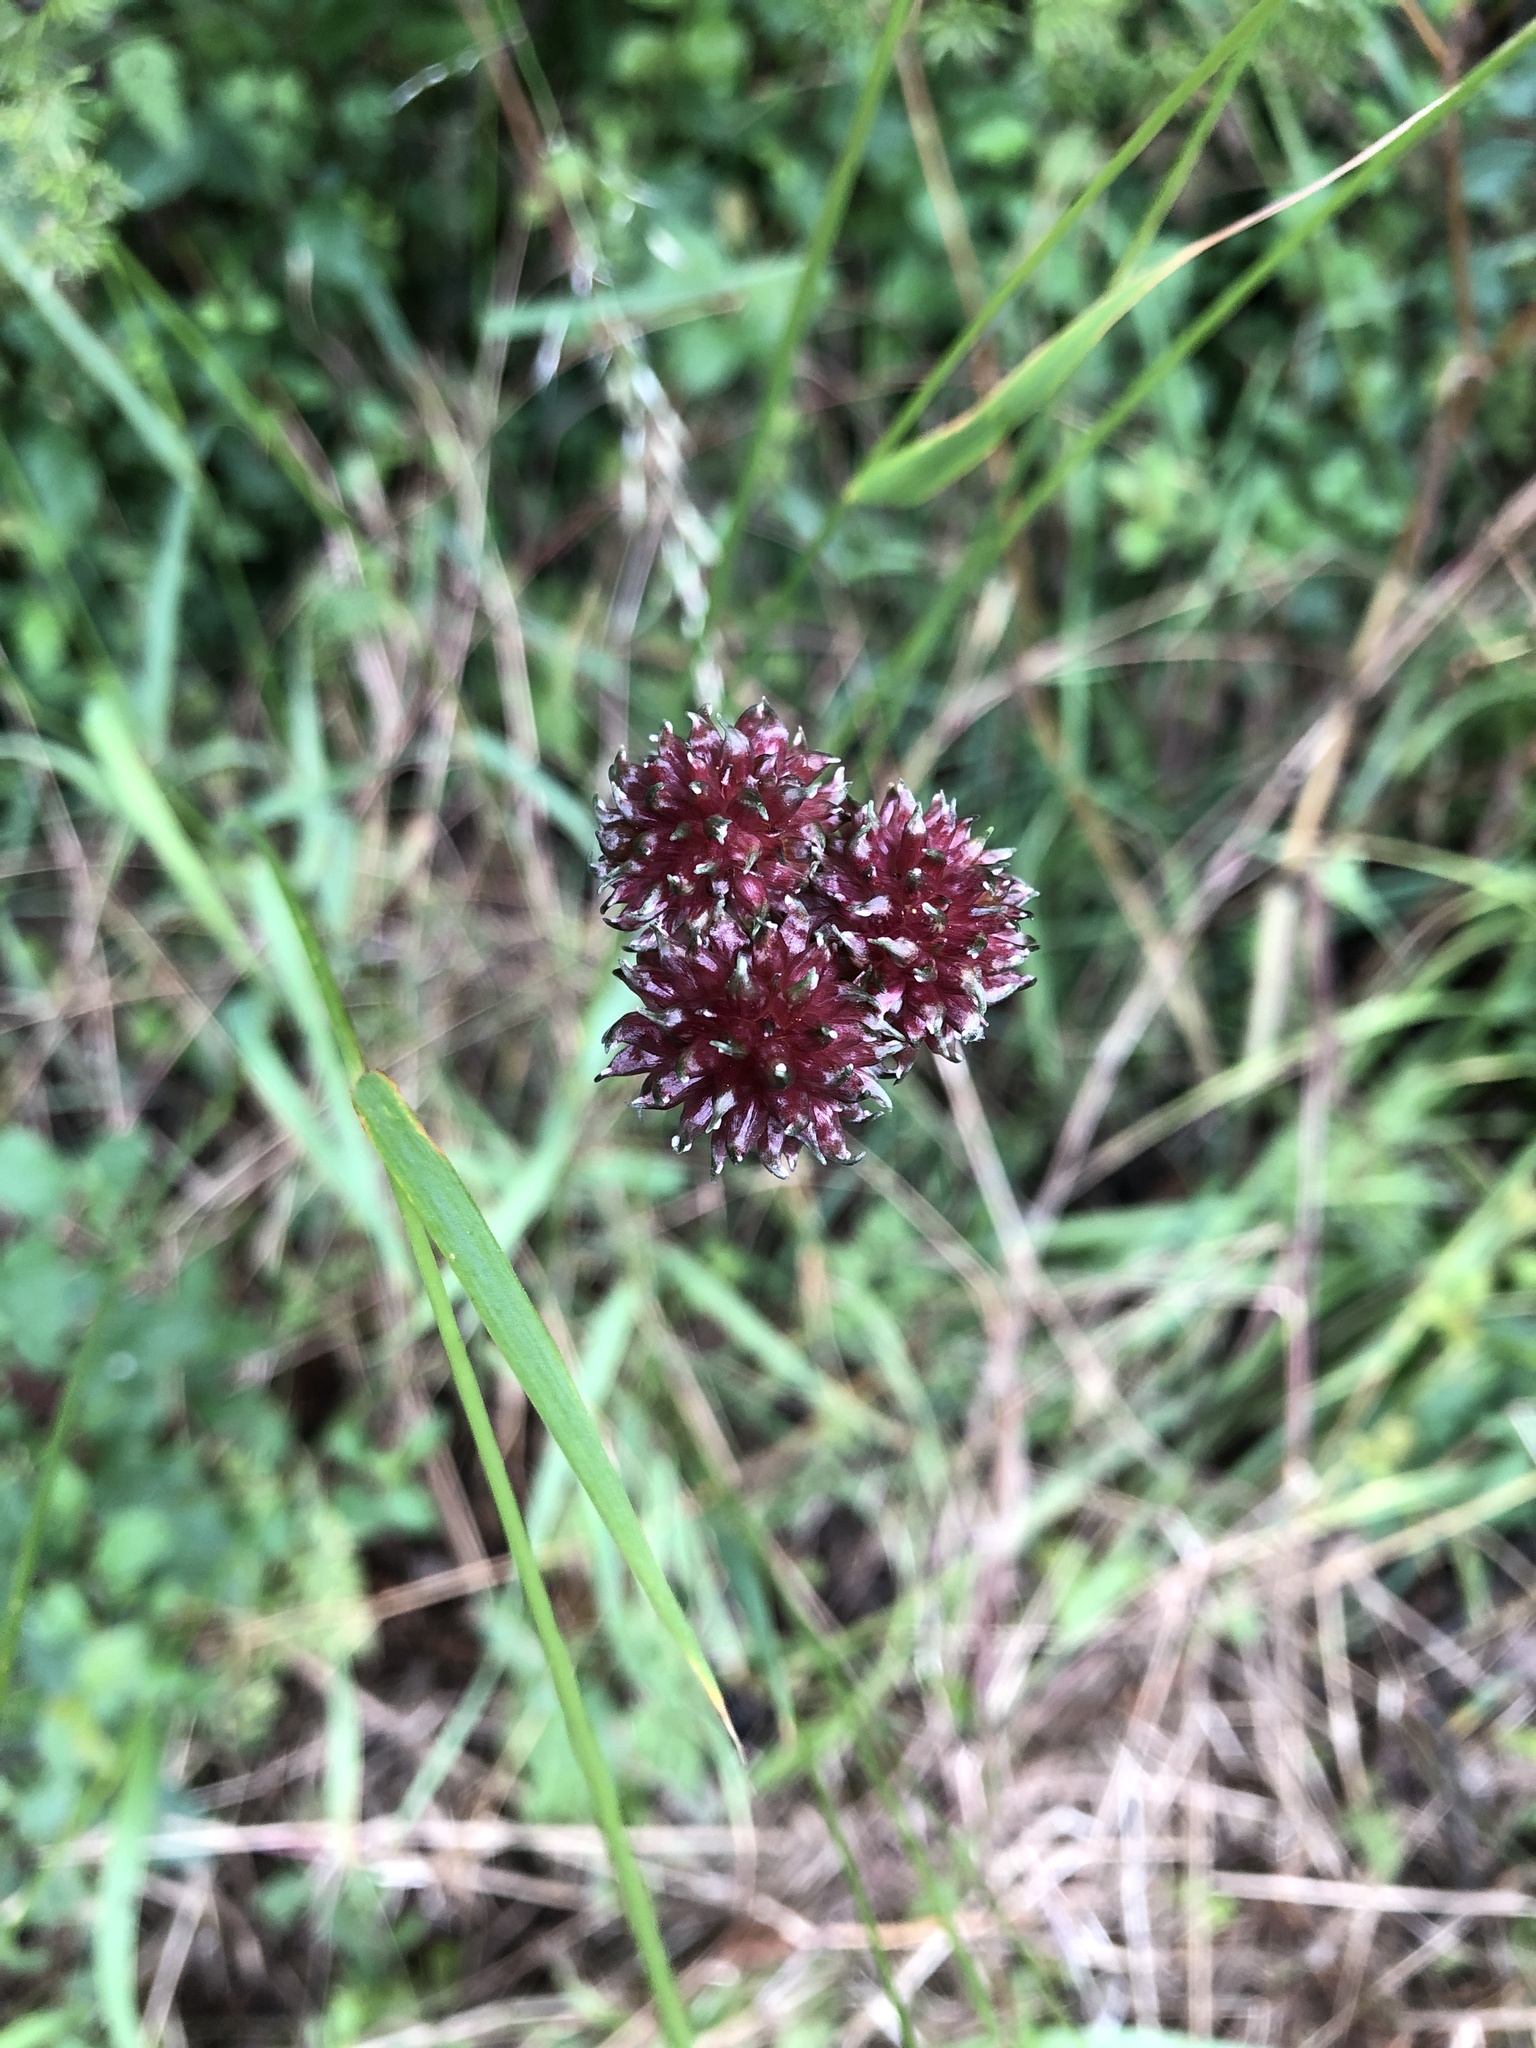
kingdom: Plantae
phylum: Tracheophyta
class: Liliopsida
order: Asparagales
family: Amaryllidaceae
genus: Allium
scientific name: Allium vineale
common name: Crow garlic
